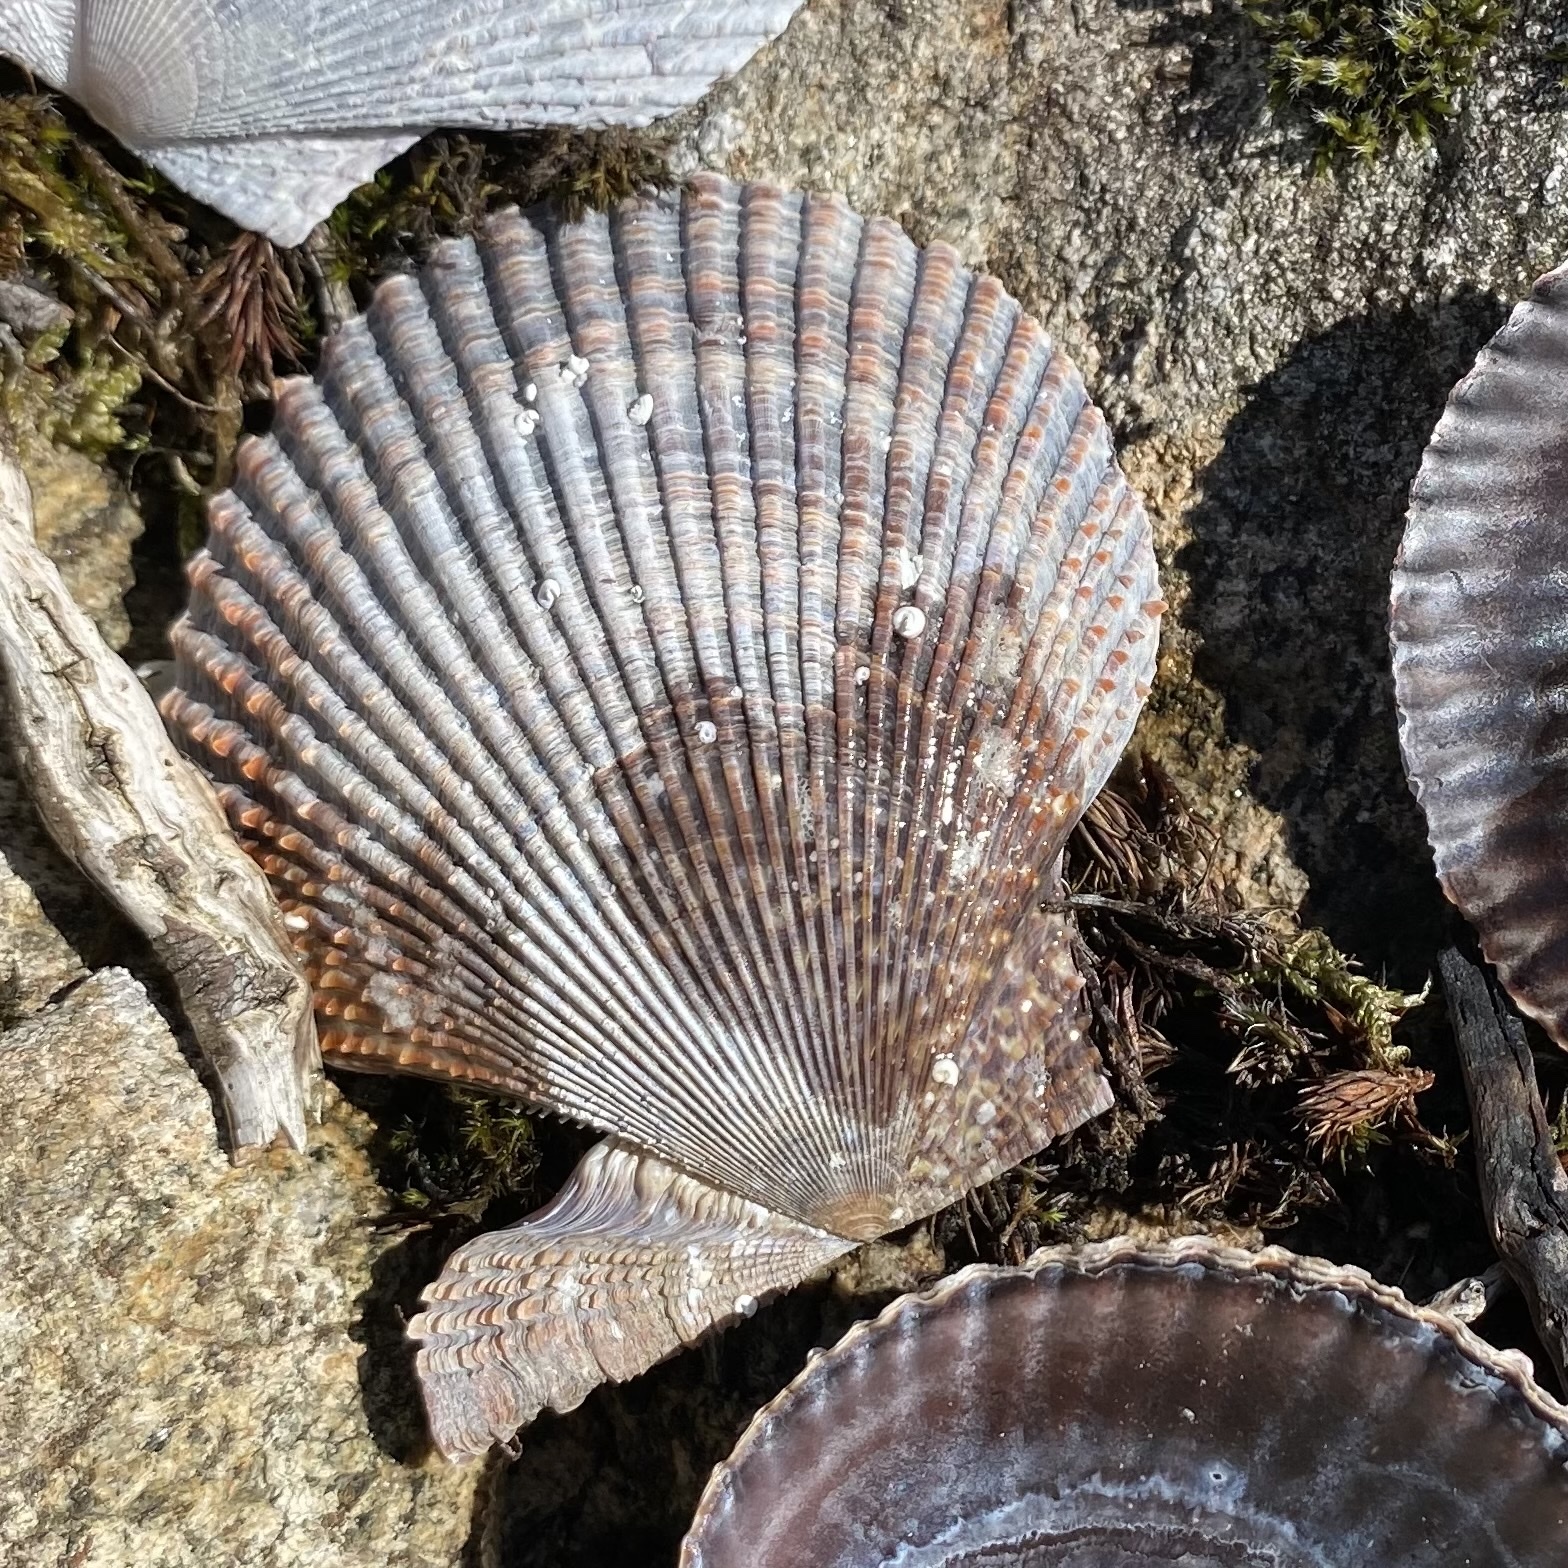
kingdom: Animalia
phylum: Mollusca
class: Bivalvia
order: Pectinida
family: Pectinidae
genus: Mimachlamys
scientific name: Mimachlamys varia
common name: Variegated scallop
